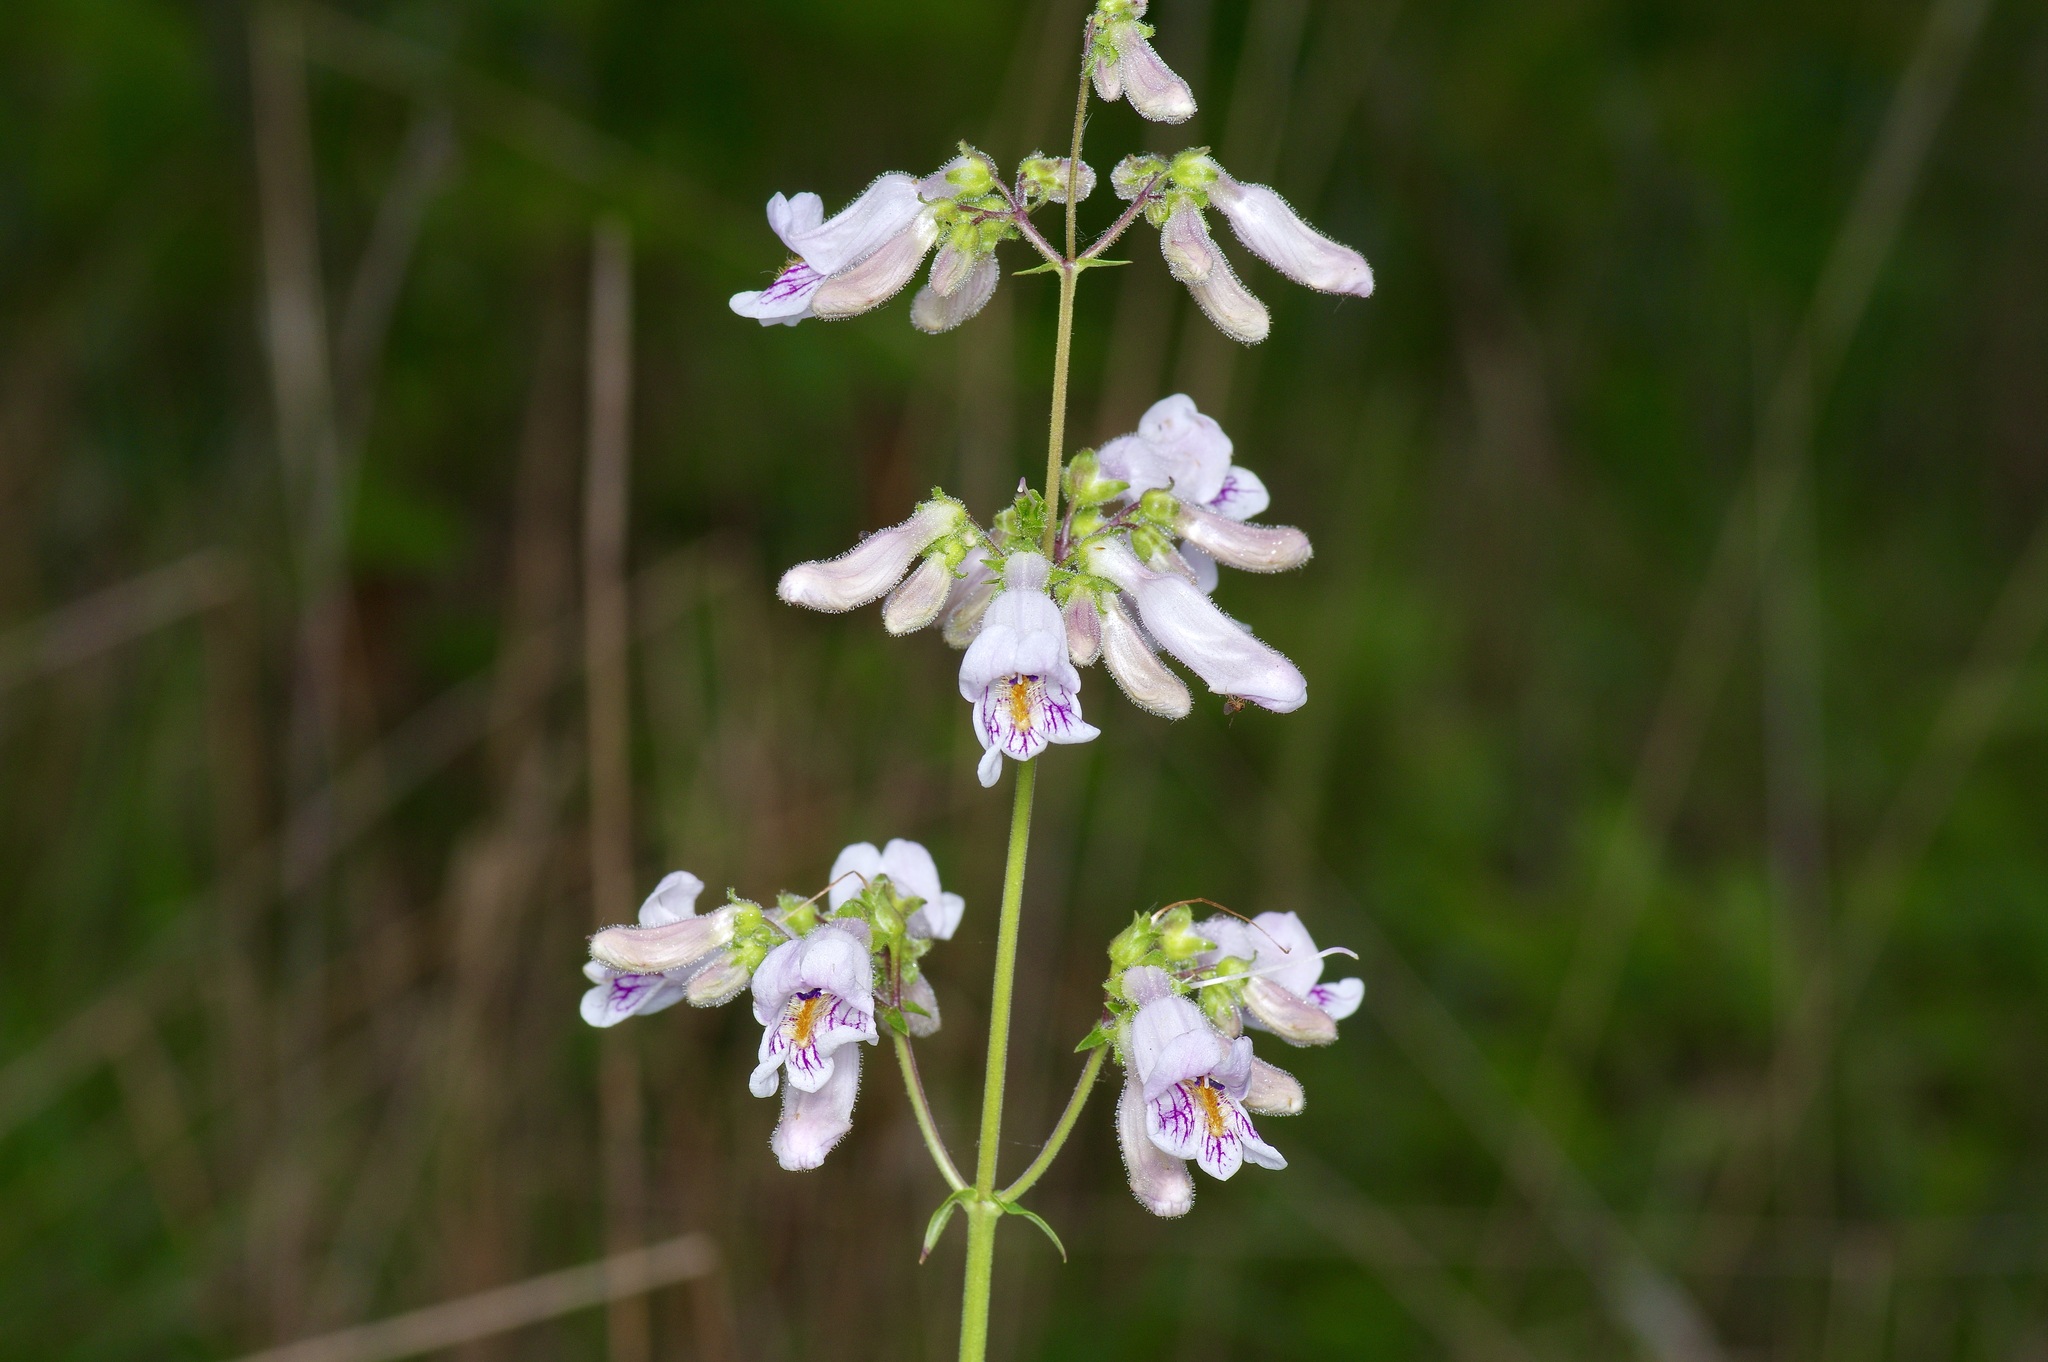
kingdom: Plantae
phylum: Tracheophyta
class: Magnoliopsida
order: Lamiales
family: Plantaginaceae
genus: Penstemon
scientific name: Penstemon laxiflorus
